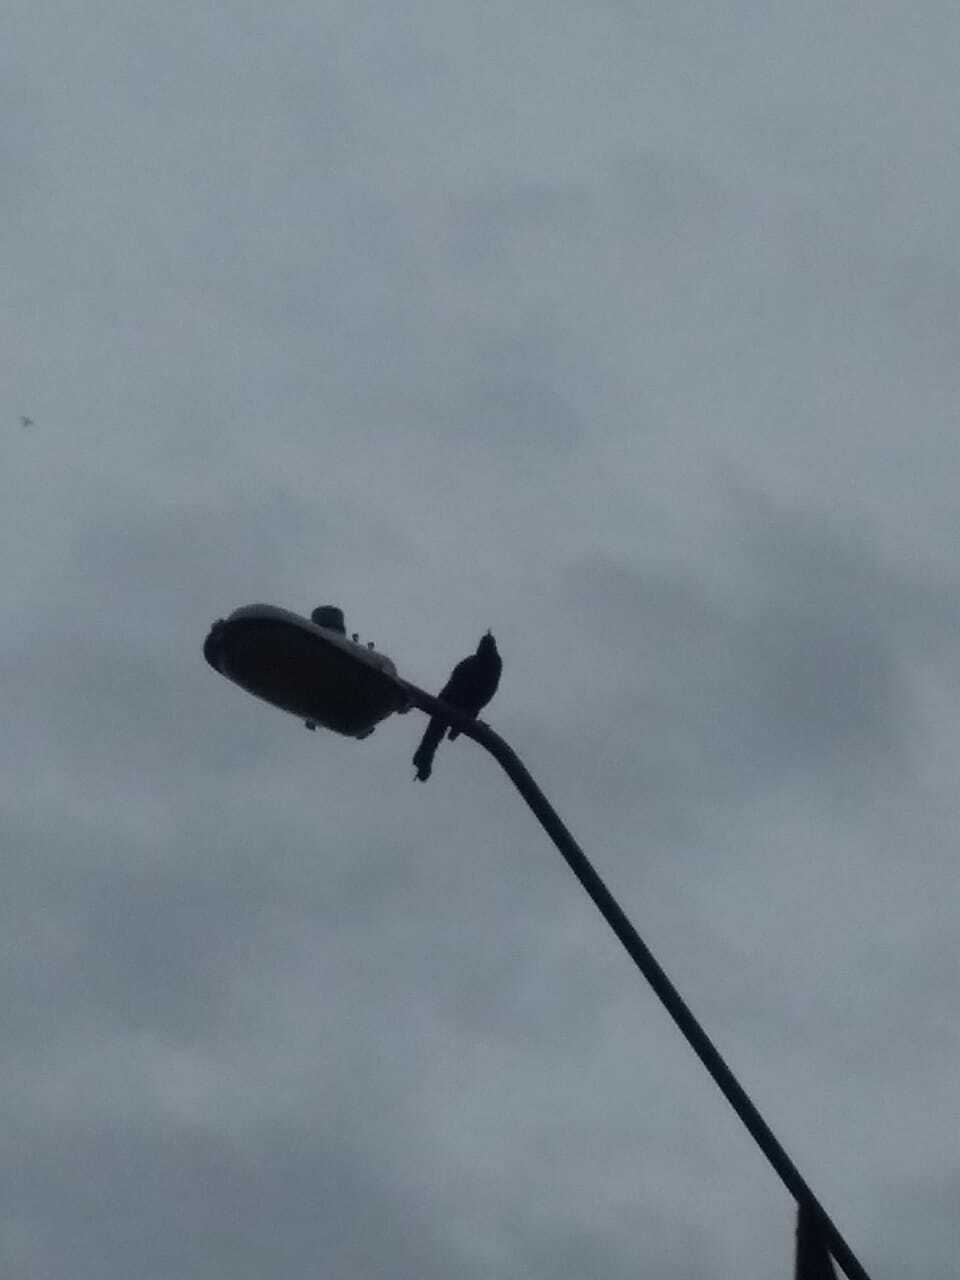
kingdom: Animalia
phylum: Chordata
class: Aves
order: Passeriformes
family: Icteridae
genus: Quiscalus
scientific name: Quiscalus mexicanus
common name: Great-tailed grackle
